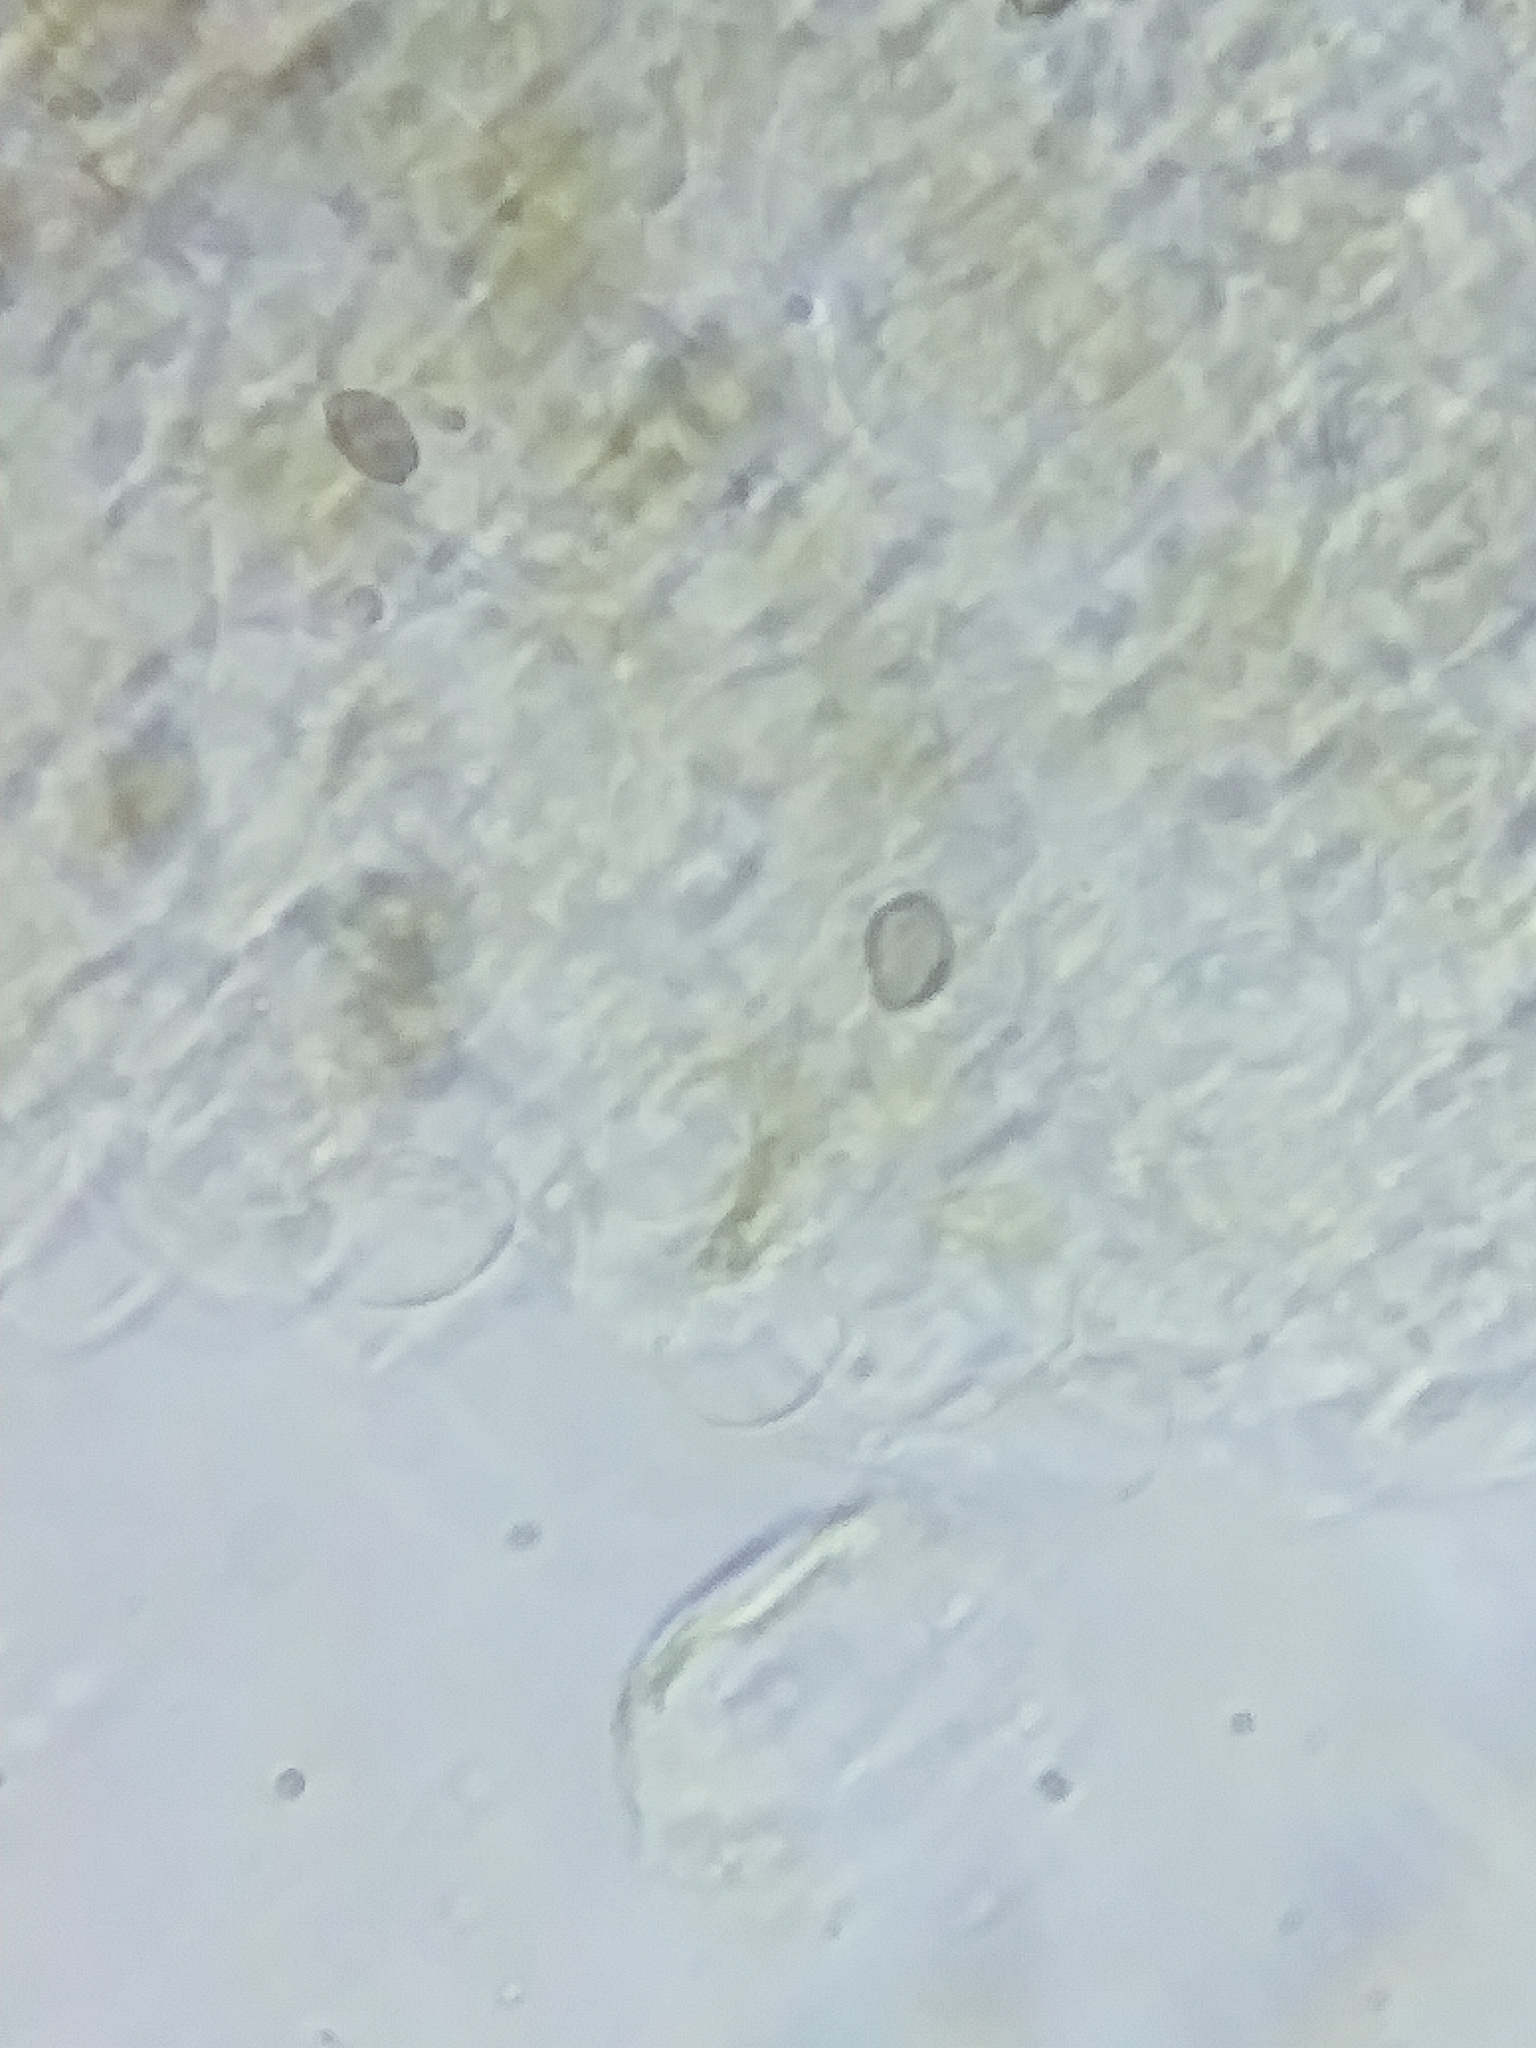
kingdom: Fungi
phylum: Basidiomycota
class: Agaricomycetes
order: Agaricales
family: Strophariaceae
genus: Agrocybe
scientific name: Agrocybe acericola
